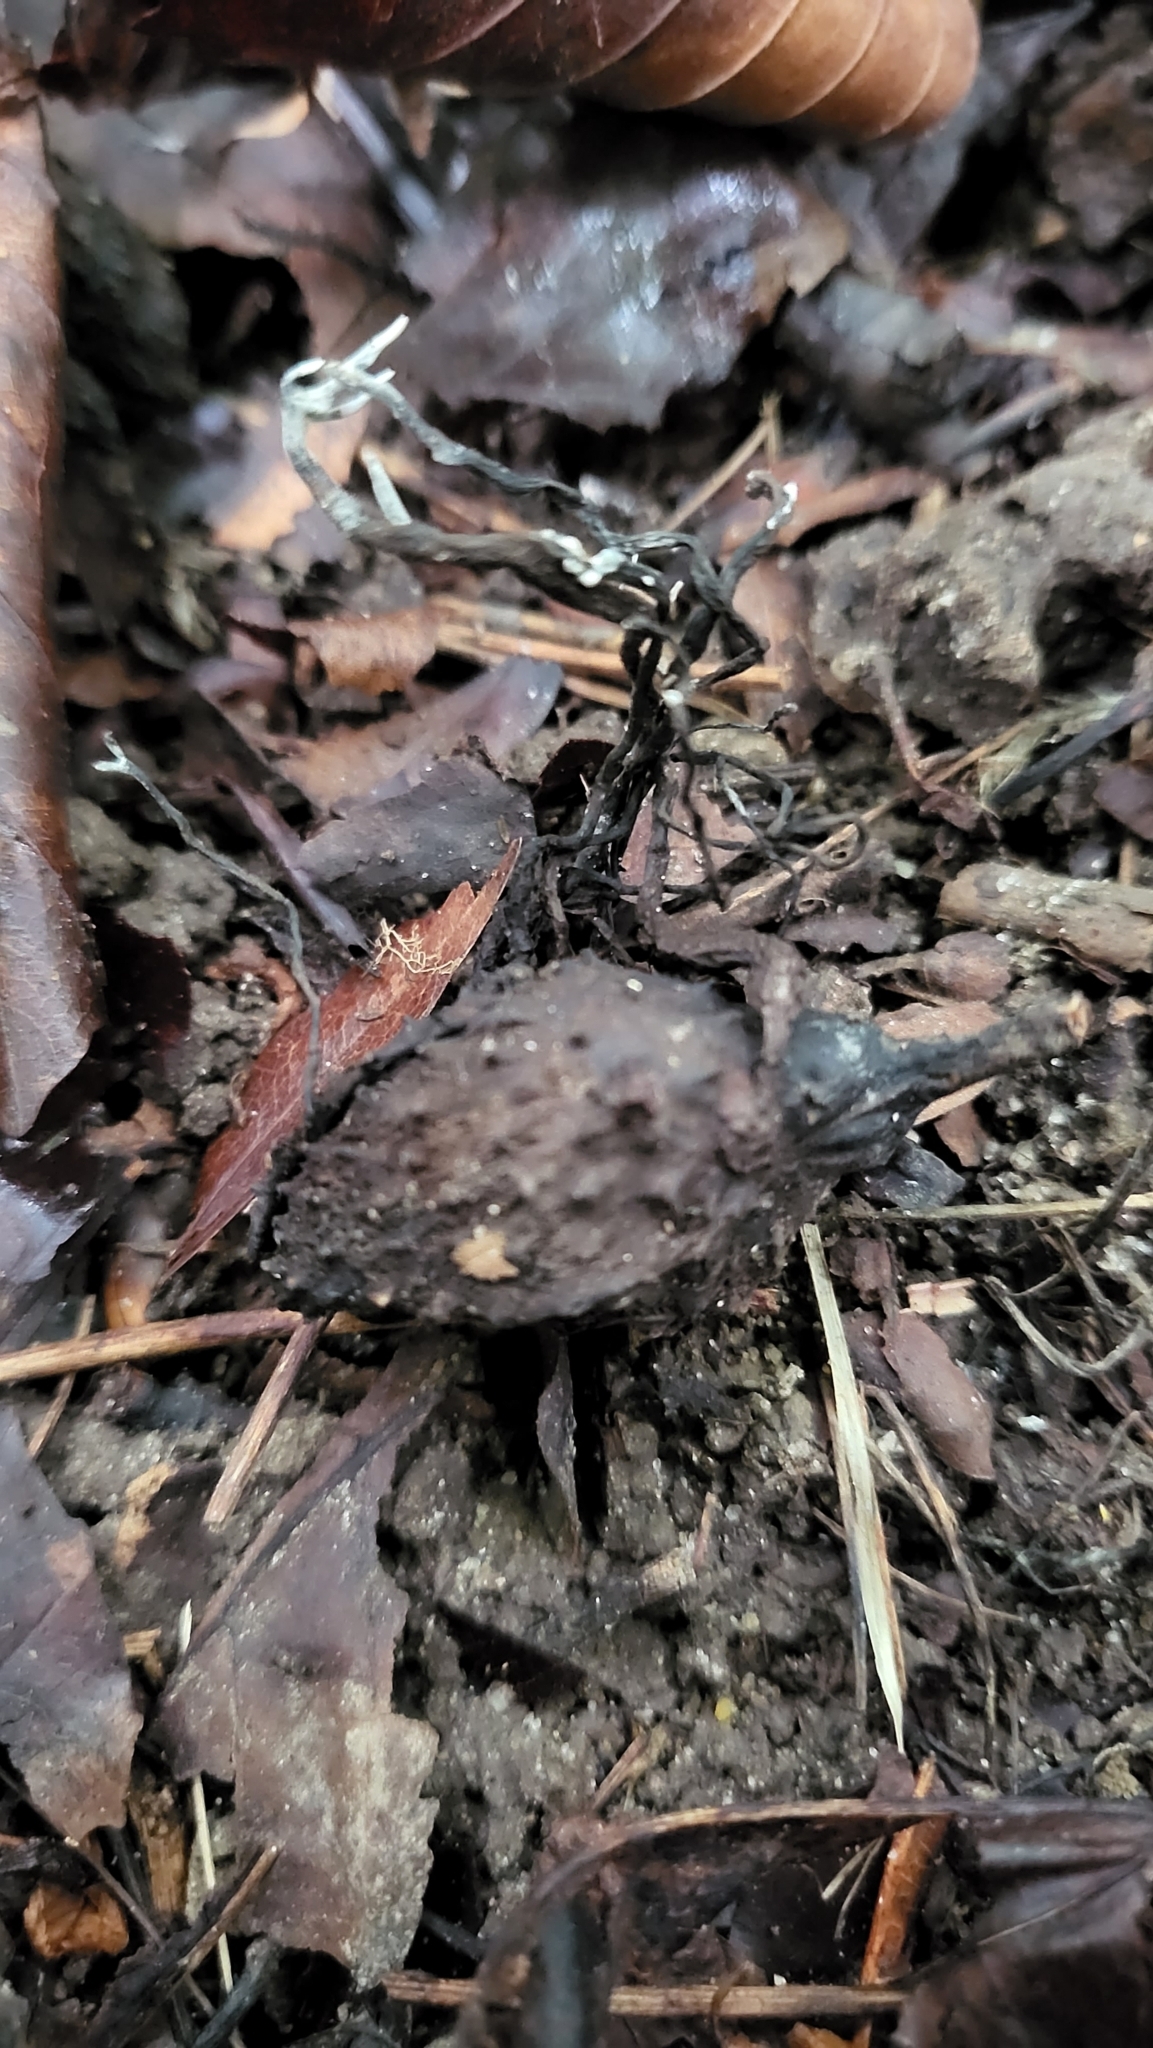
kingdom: Fungi
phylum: Ascomycota
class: Sordariomycetes
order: Xylariales
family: Xylariaceae
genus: Xylaria
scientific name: Xylaria carpophila
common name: Beechmast candlesnuff
